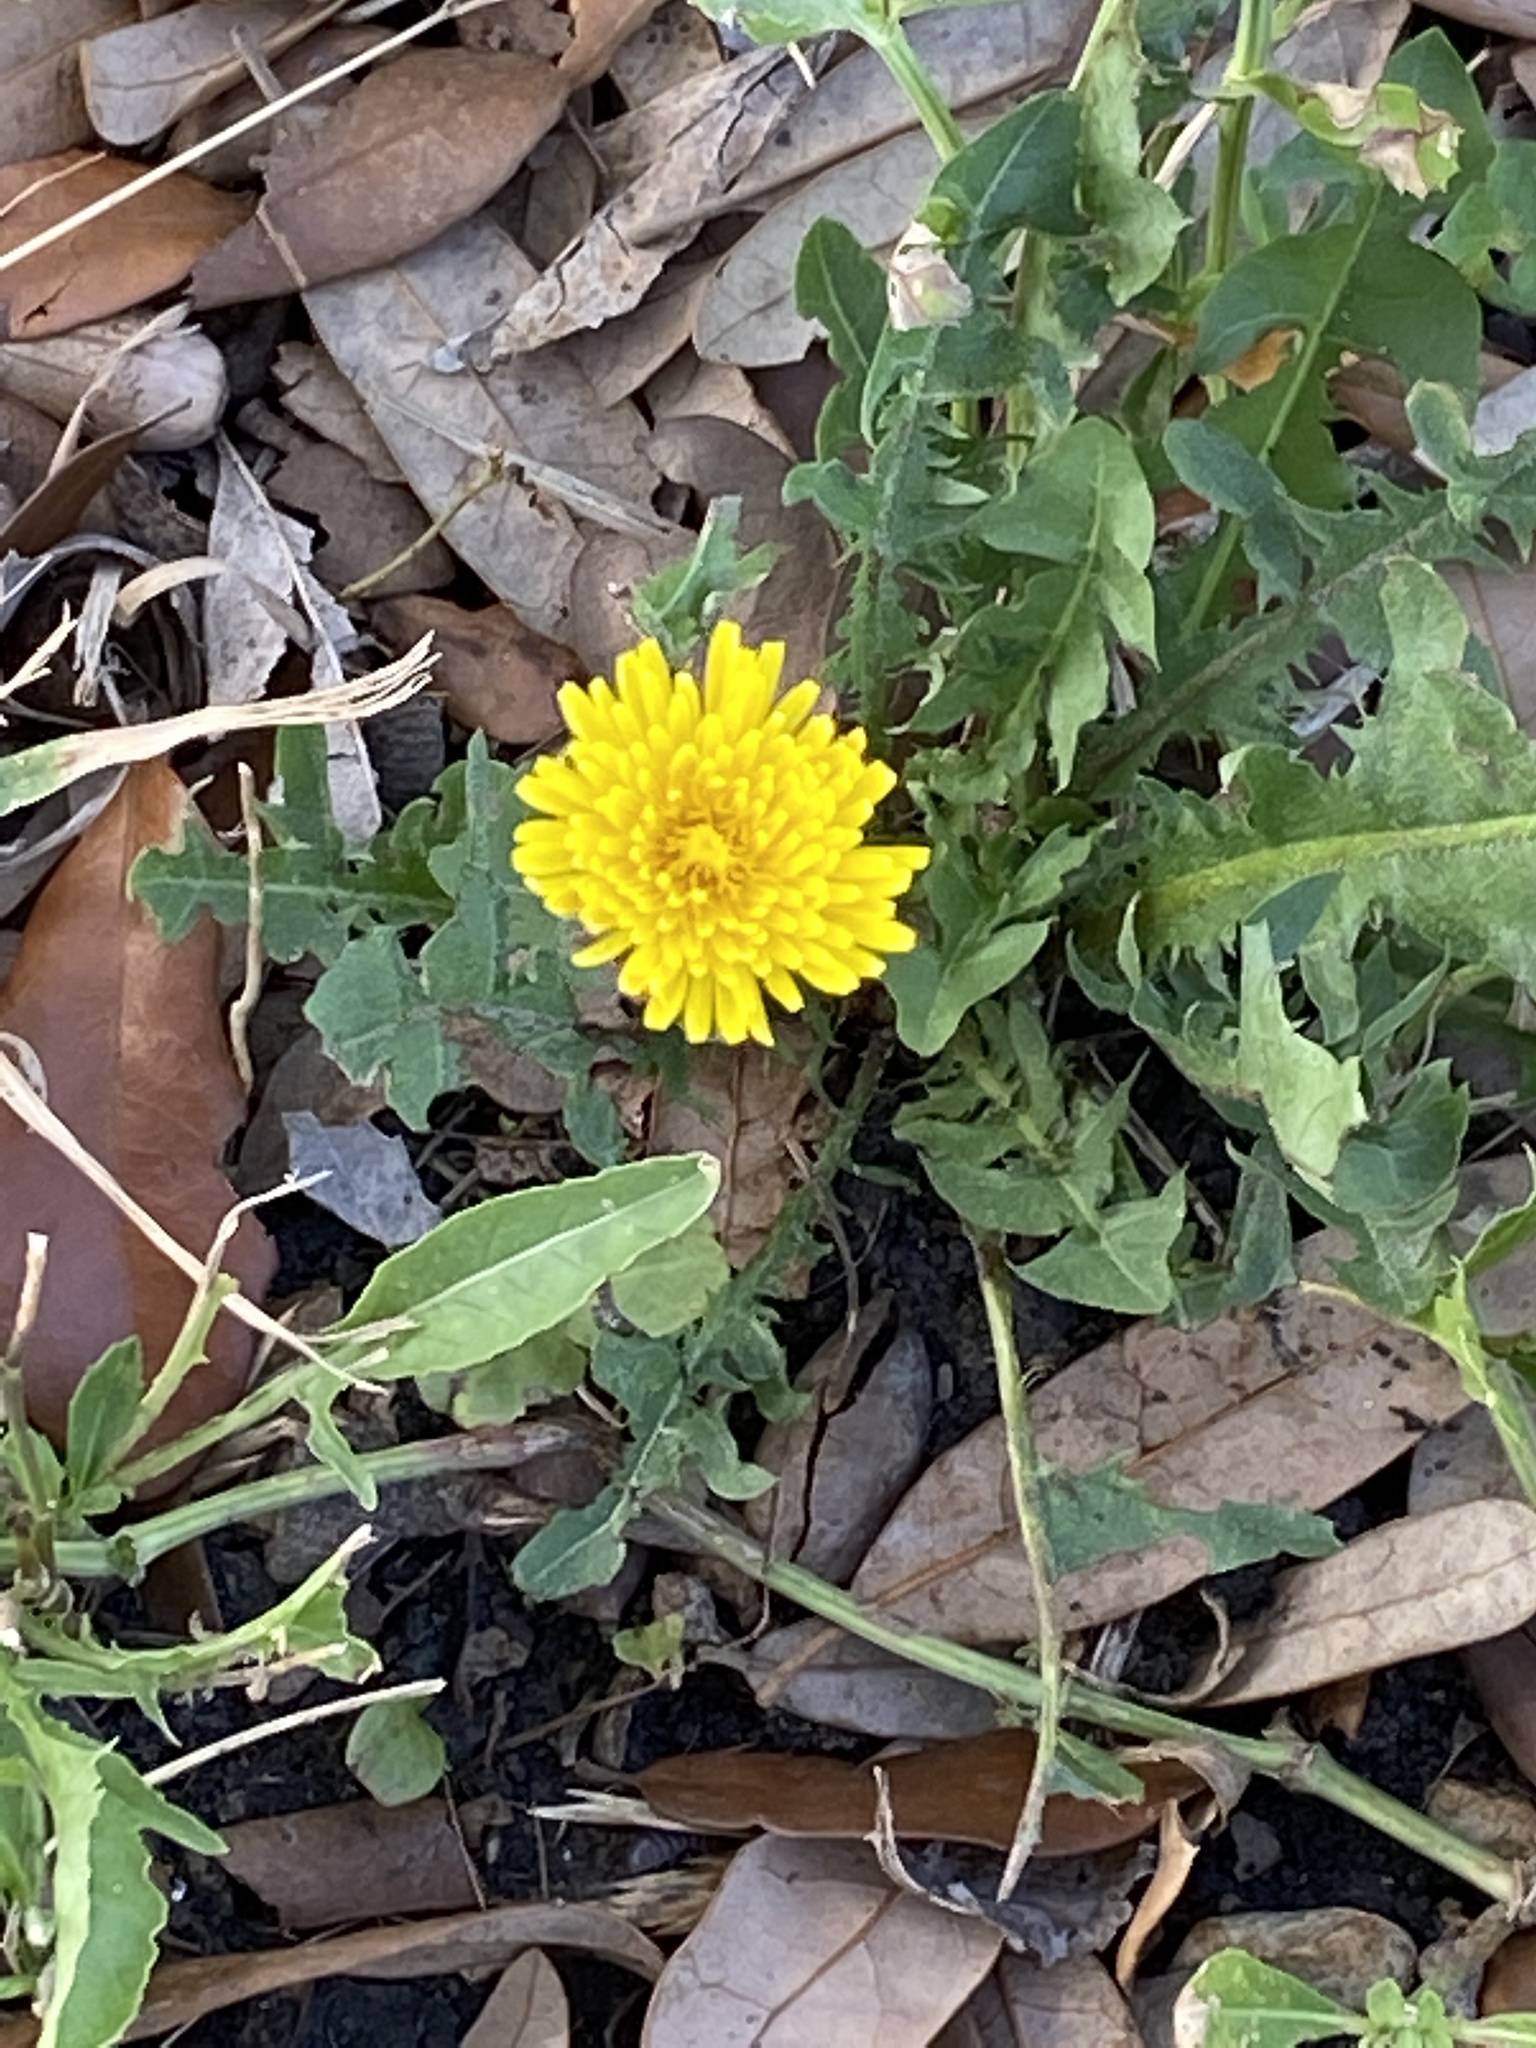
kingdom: Plantae
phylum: Tracheophyta
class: Magnoliopsida
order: Asterales
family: Asteraceae
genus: Taraxacum
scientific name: Taraxacum officinale
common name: Common dandelion
